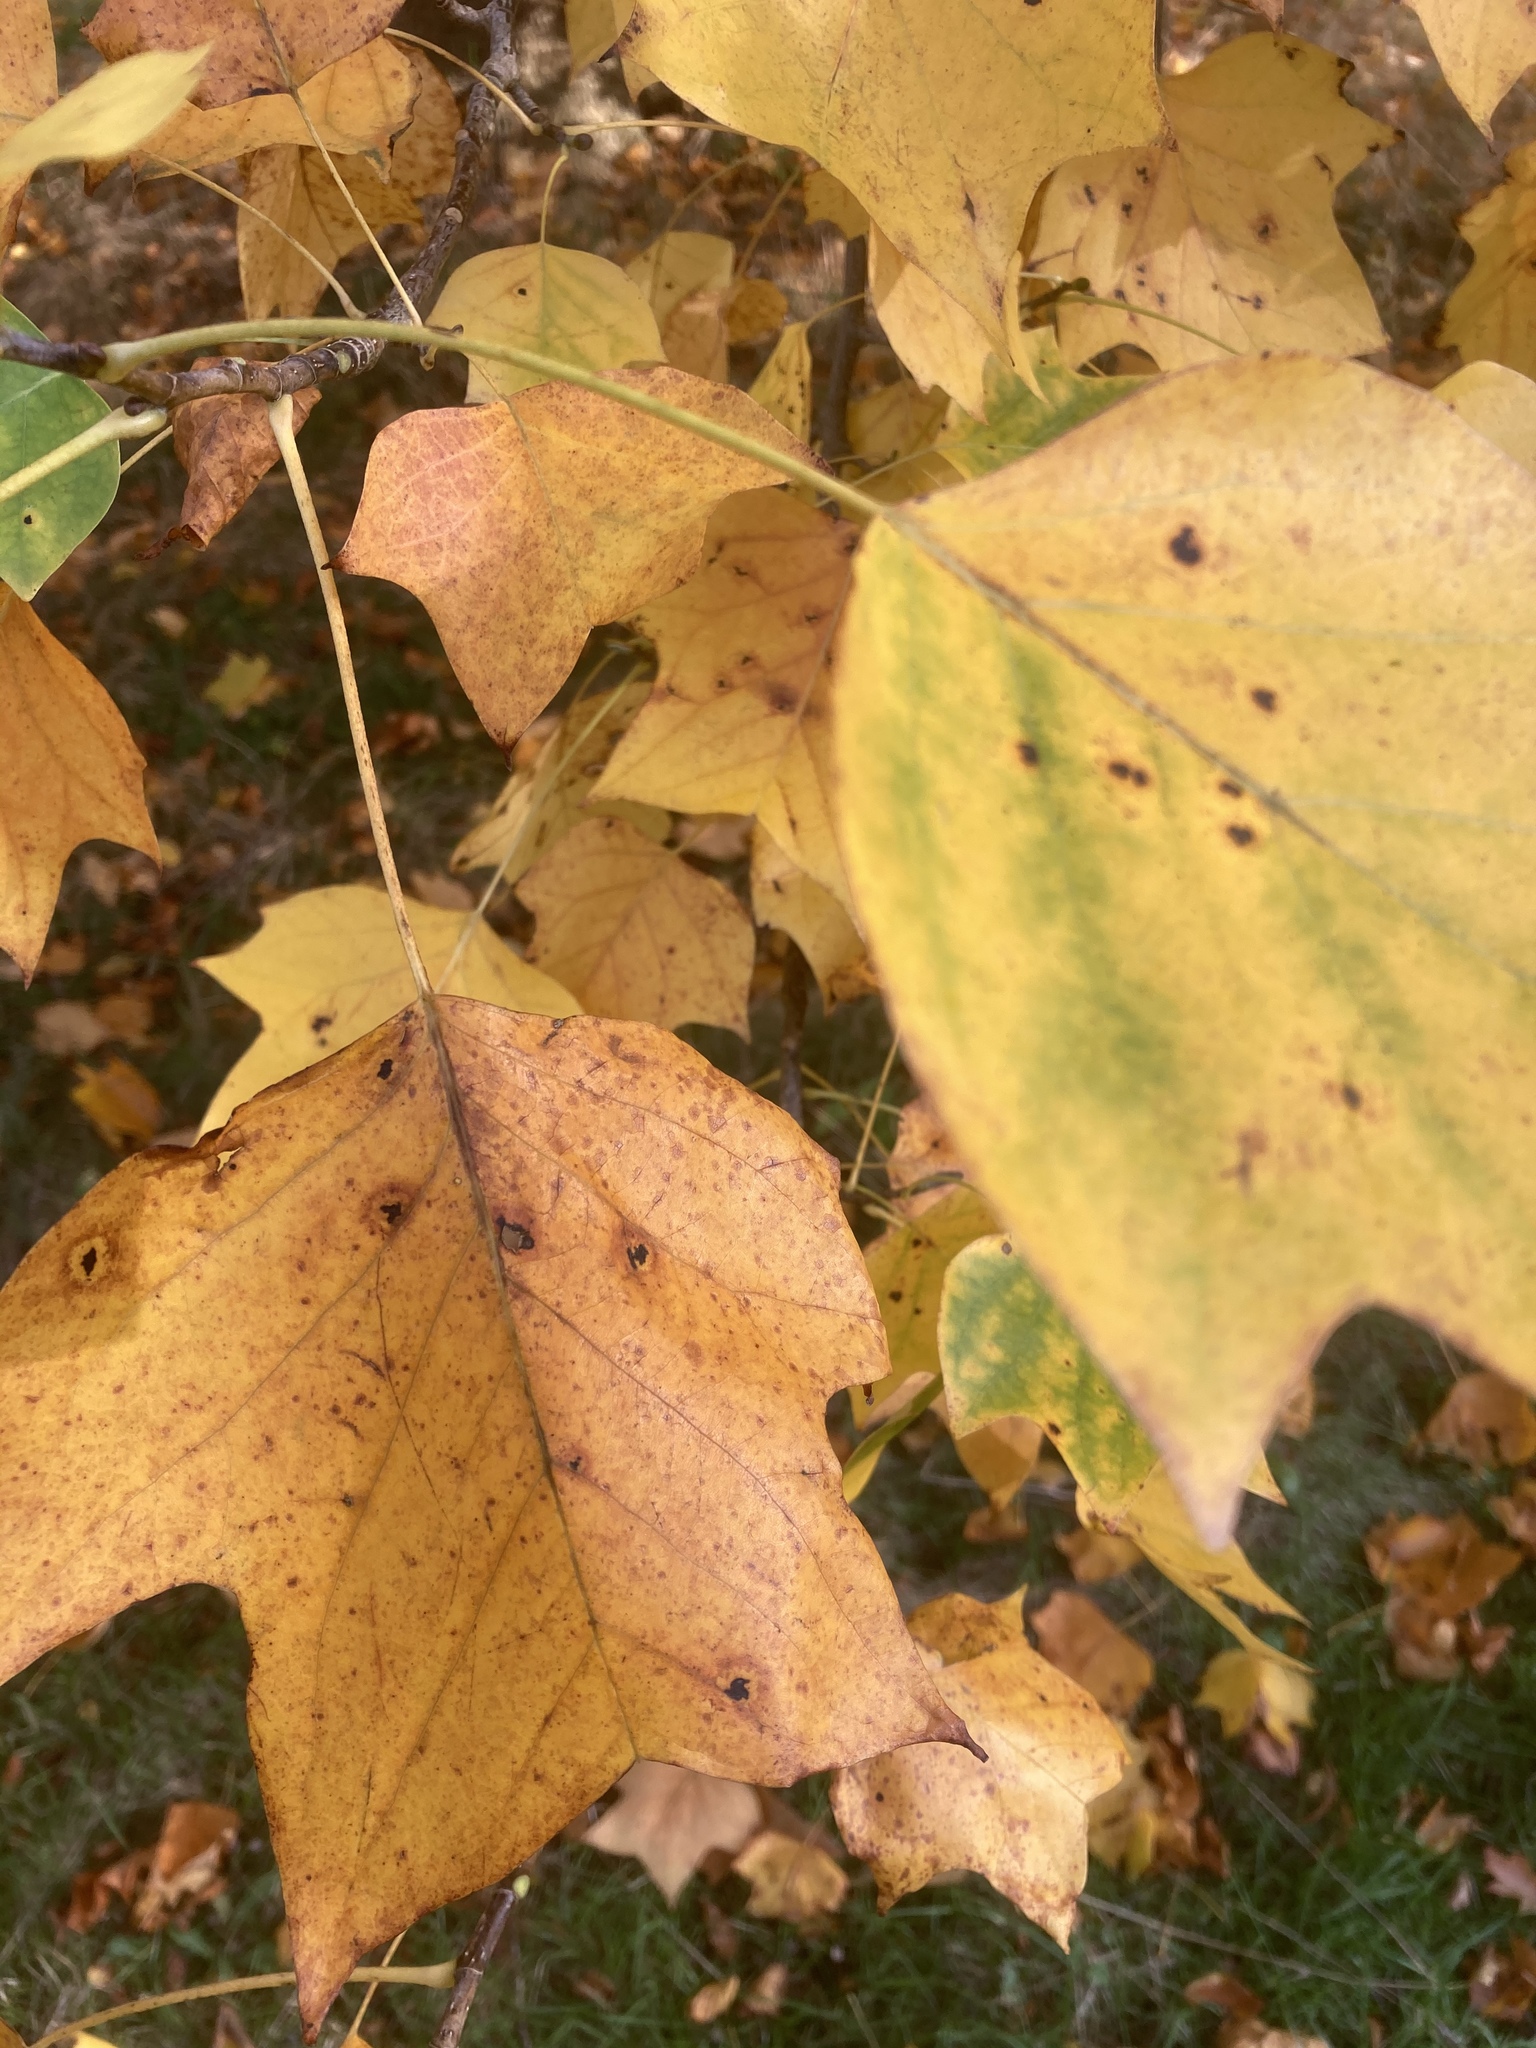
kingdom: Plantae
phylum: Tracheophyta
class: Magnoliopsida
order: Magnoliales
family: Magnoliaceae
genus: Liriodendron
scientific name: Liriodendron tulipifera
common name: Tulip tree
